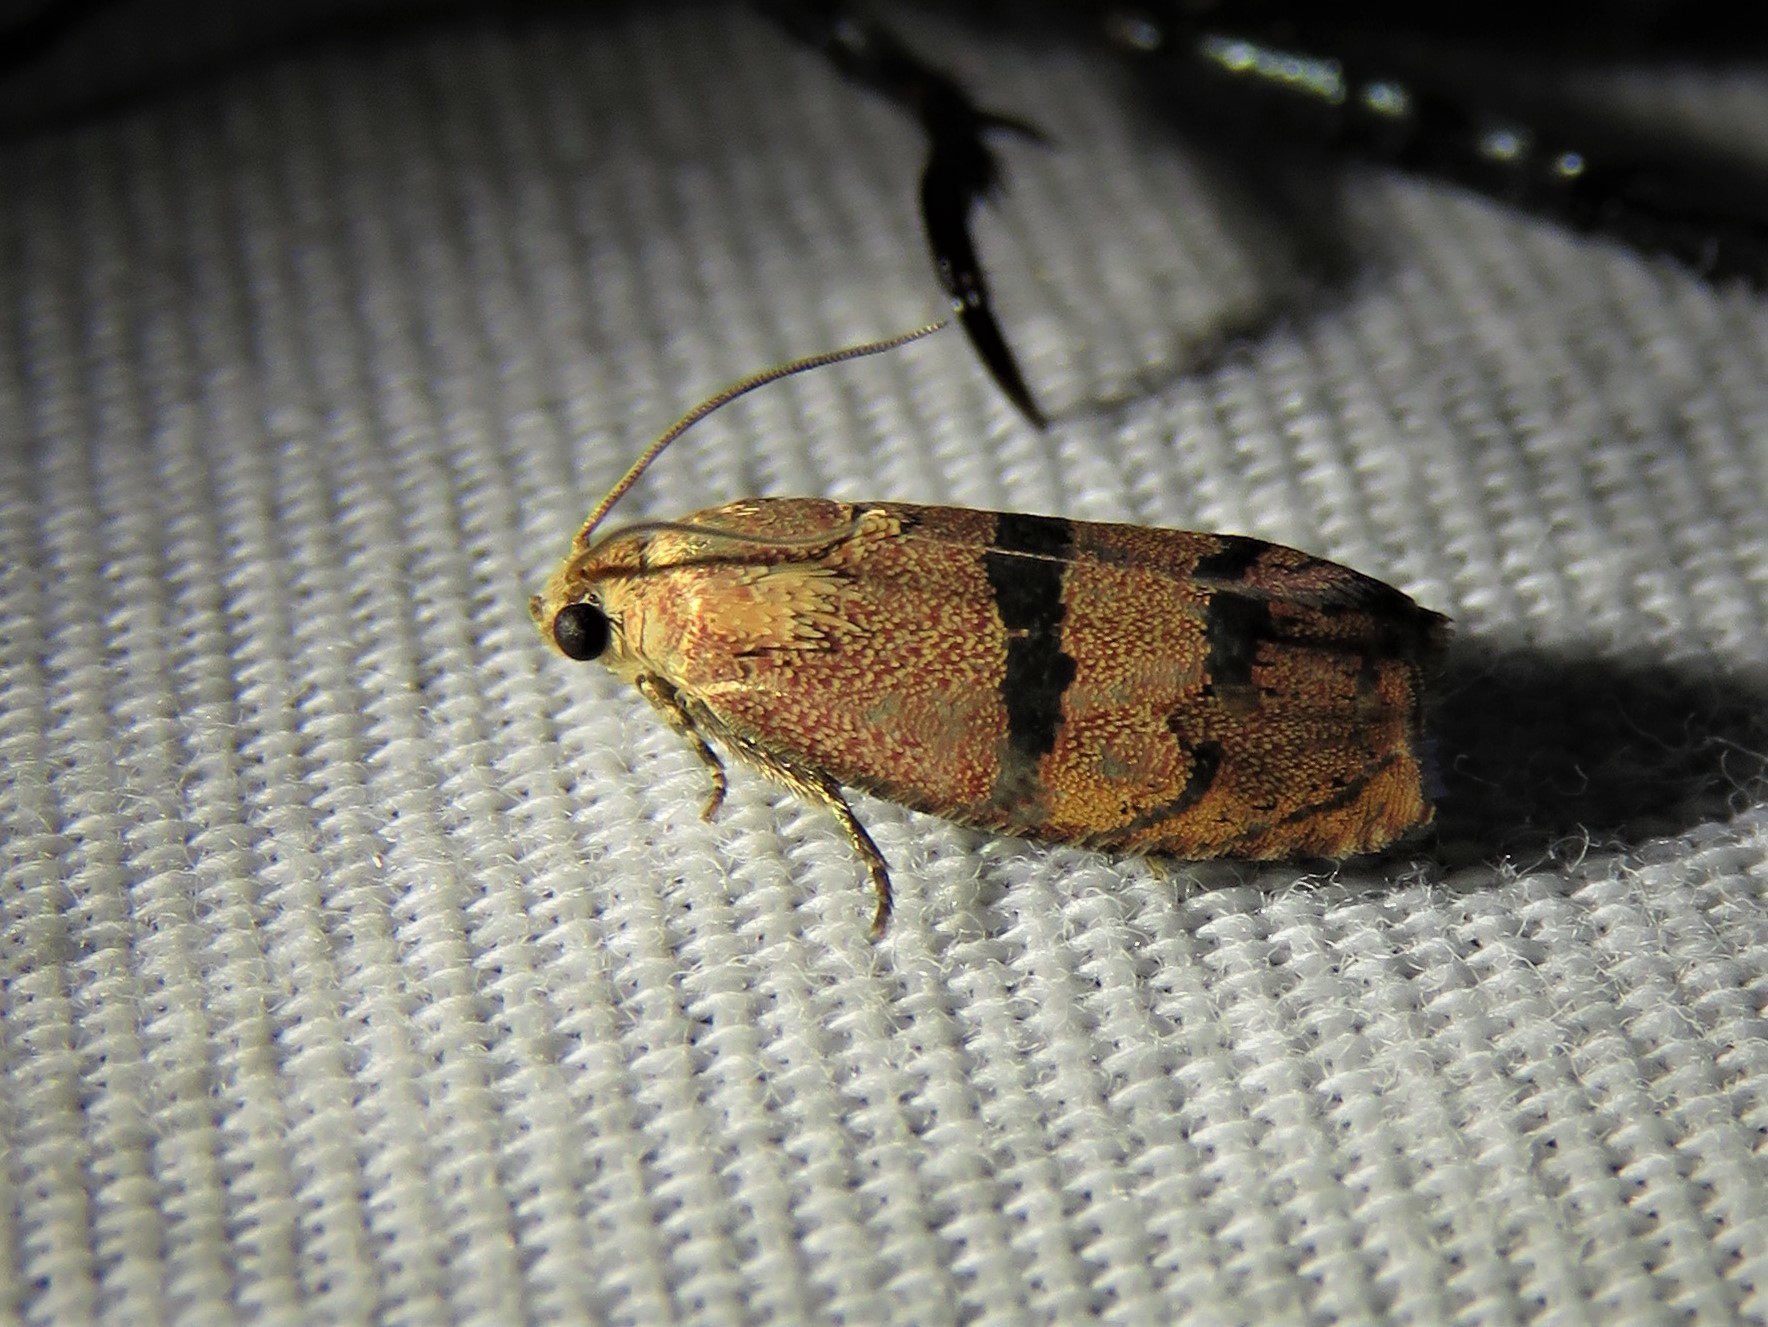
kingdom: Animalia
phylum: Arthropoda
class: Insecta
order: Lepidoptera
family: Tortricidae
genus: Cydia
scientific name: Cydia latiferreana
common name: Filbertworm moth
